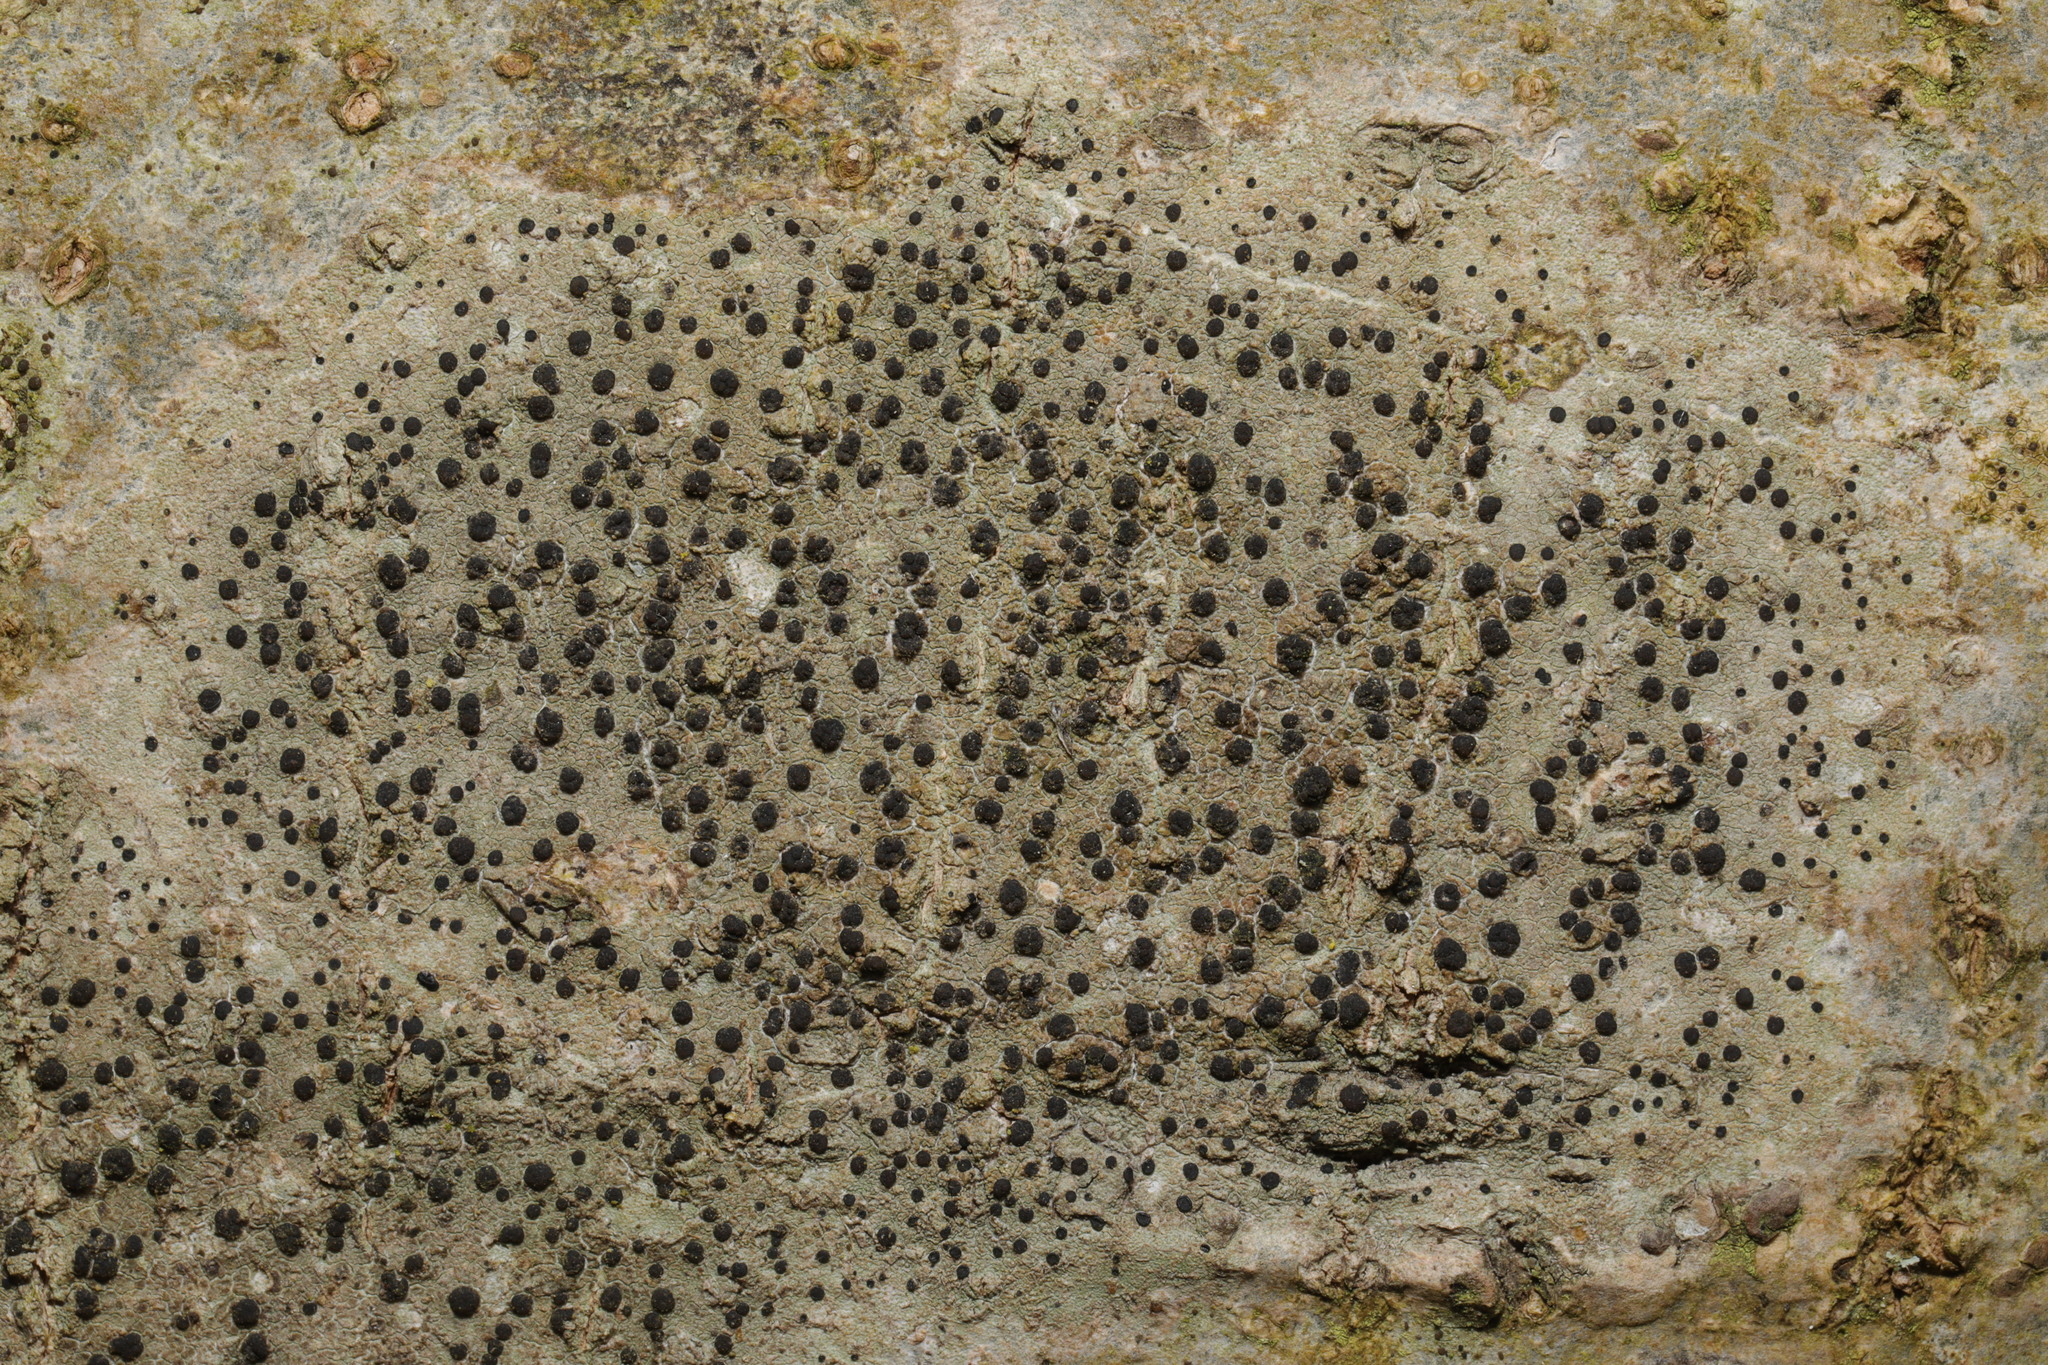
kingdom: Fungi
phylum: Ascomycota
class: Lecanoromycetes
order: Lecanorales
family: Lecanoraceae
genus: Lecidella
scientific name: Lecidella elaeochroma
